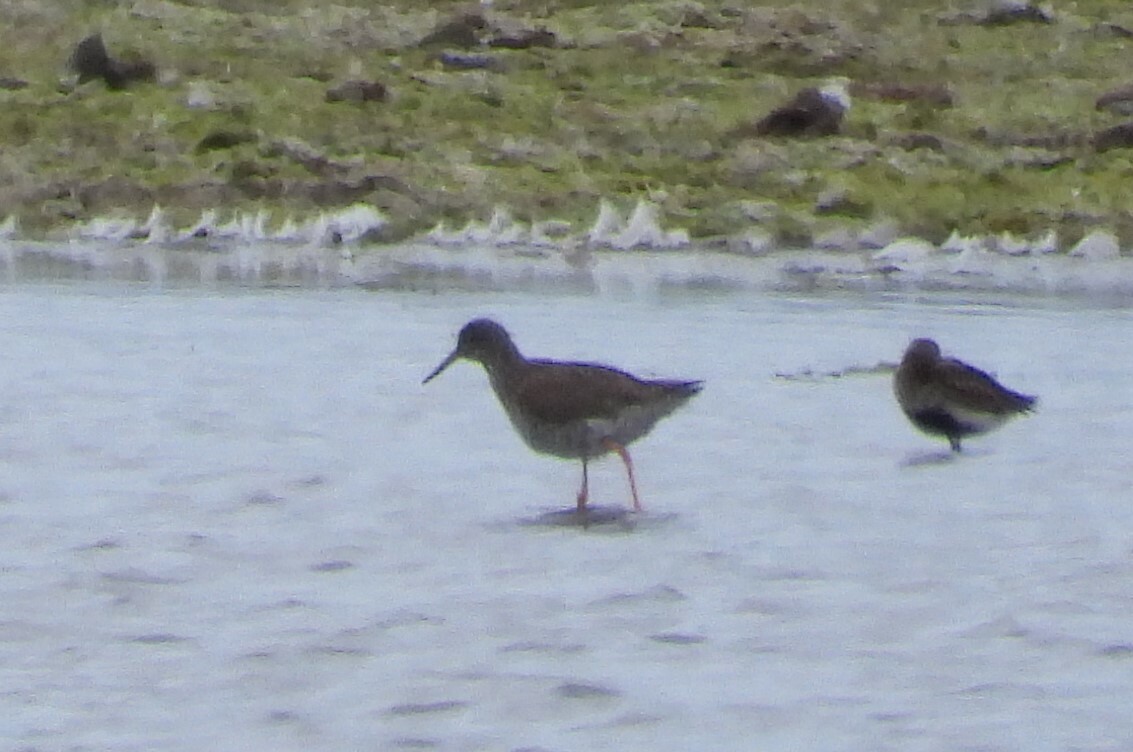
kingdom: Animalia
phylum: Chordata
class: Aves
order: Charadriiformes
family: Scolopacidae
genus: Tringa
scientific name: Tringa totanus
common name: Common redshank
